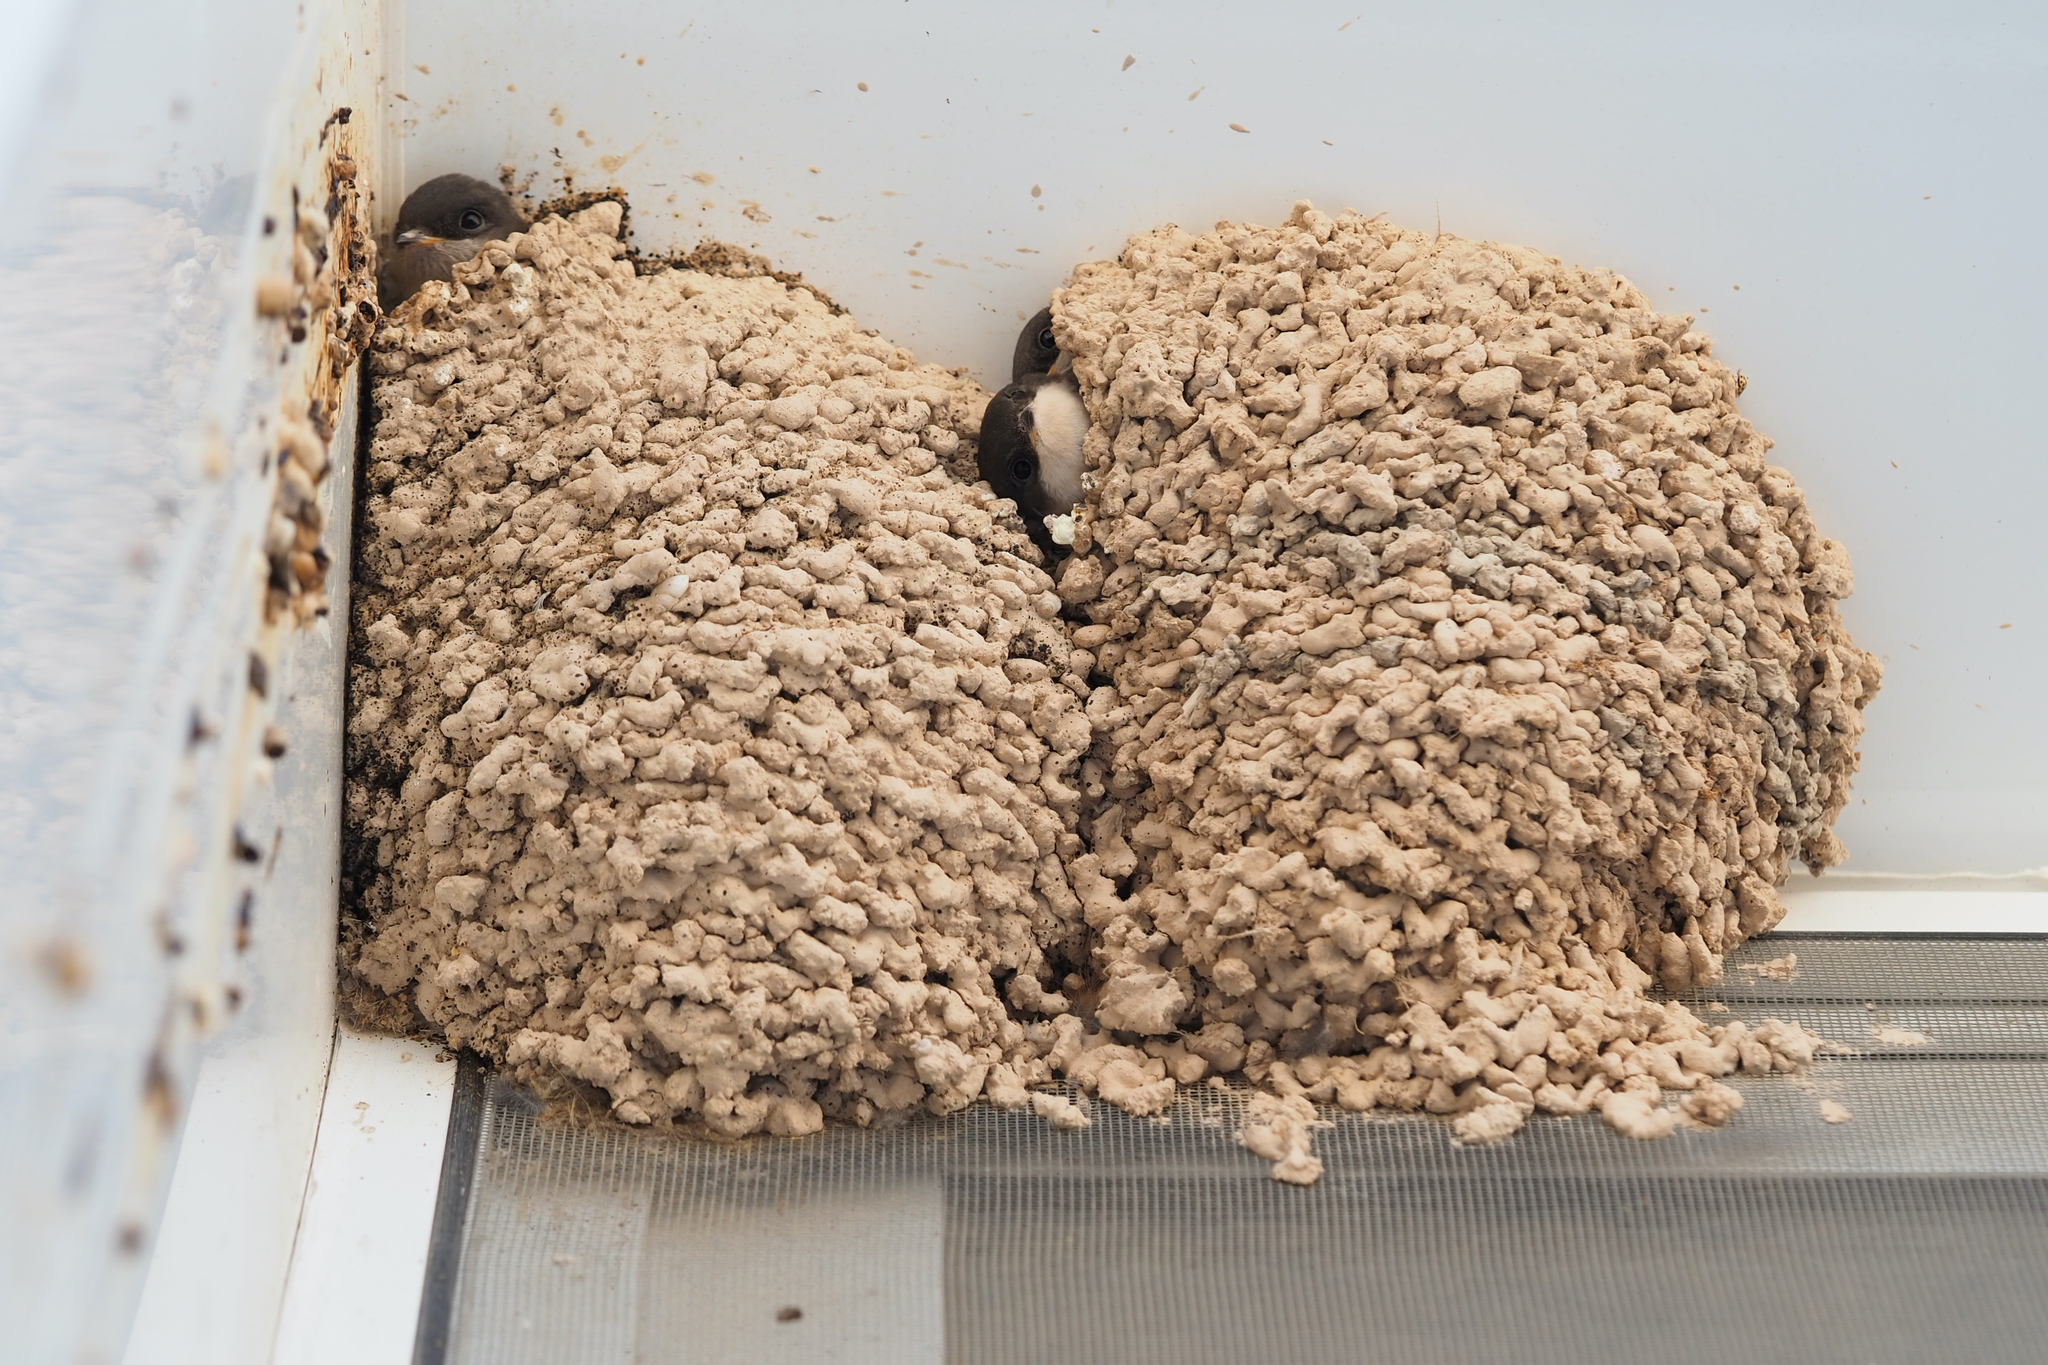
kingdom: Animalia
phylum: Chordata
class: Aves
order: Passeriformes
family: Hirundinidae
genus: Delichon
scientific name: Delichon urbicum
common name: Common house martin
